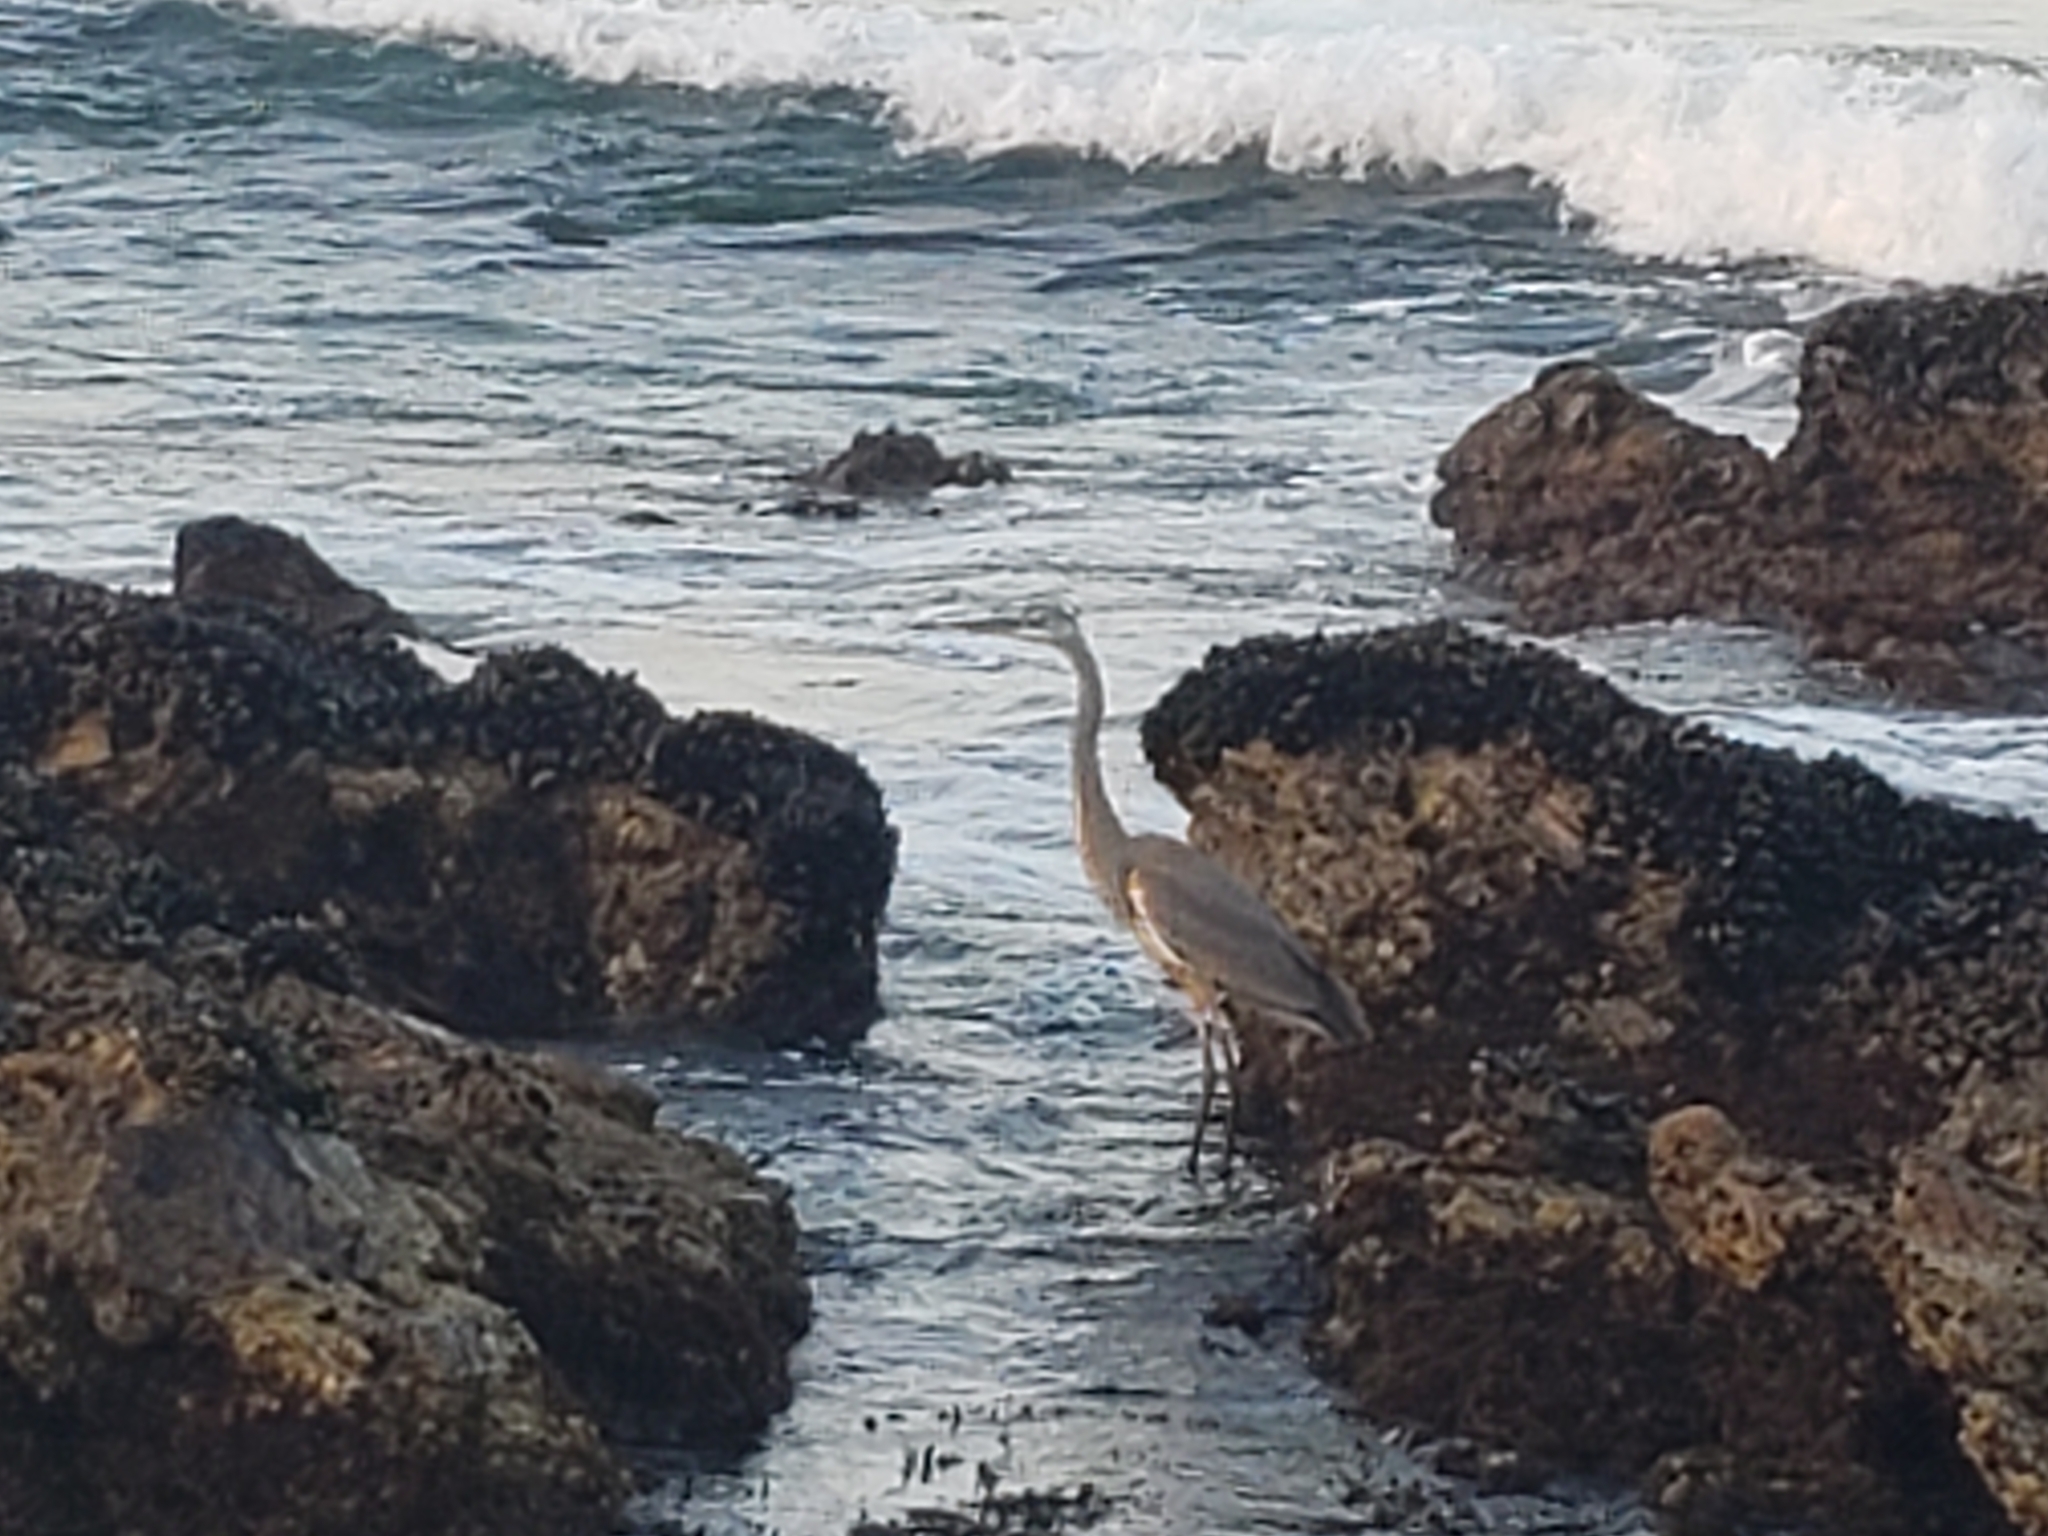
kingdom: Animalia
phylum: Chordata
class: Aves
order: Pelecaniformes
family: Ardeidae
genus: Ardea
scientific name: Ardea herodias
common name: Great blue heron
